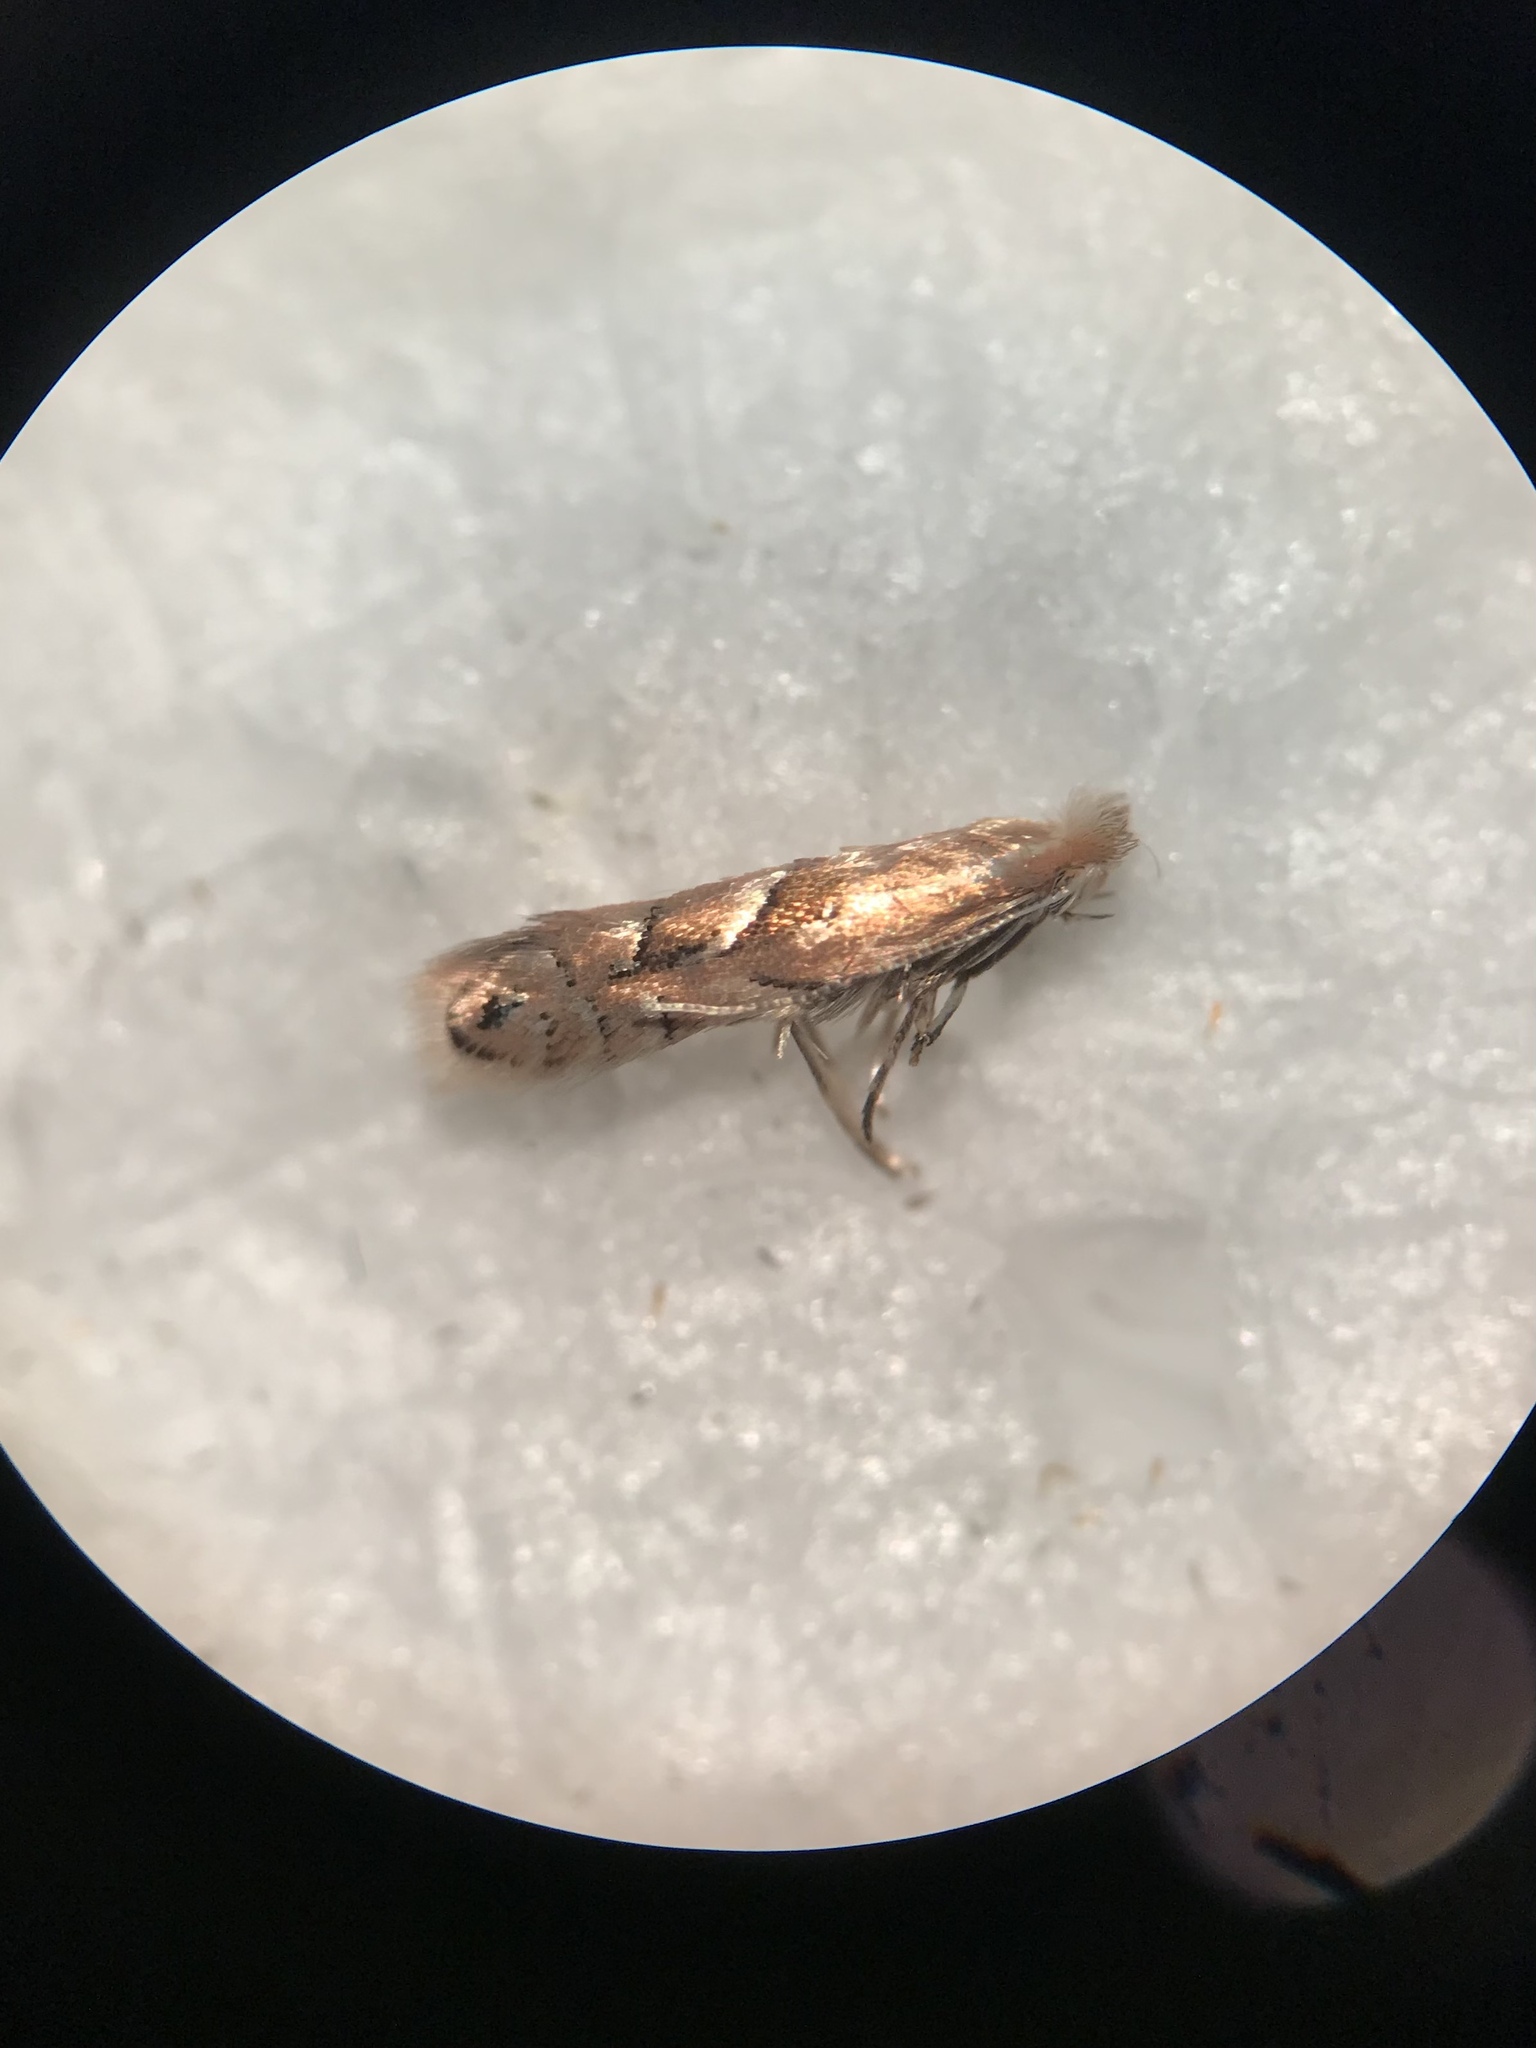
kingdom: Animalia
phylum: Arthropoda
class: Insecta
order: Lepidoptera
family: Gracillariidae
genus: Phyllonorycter
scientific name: Phyllonorycter scudderella
